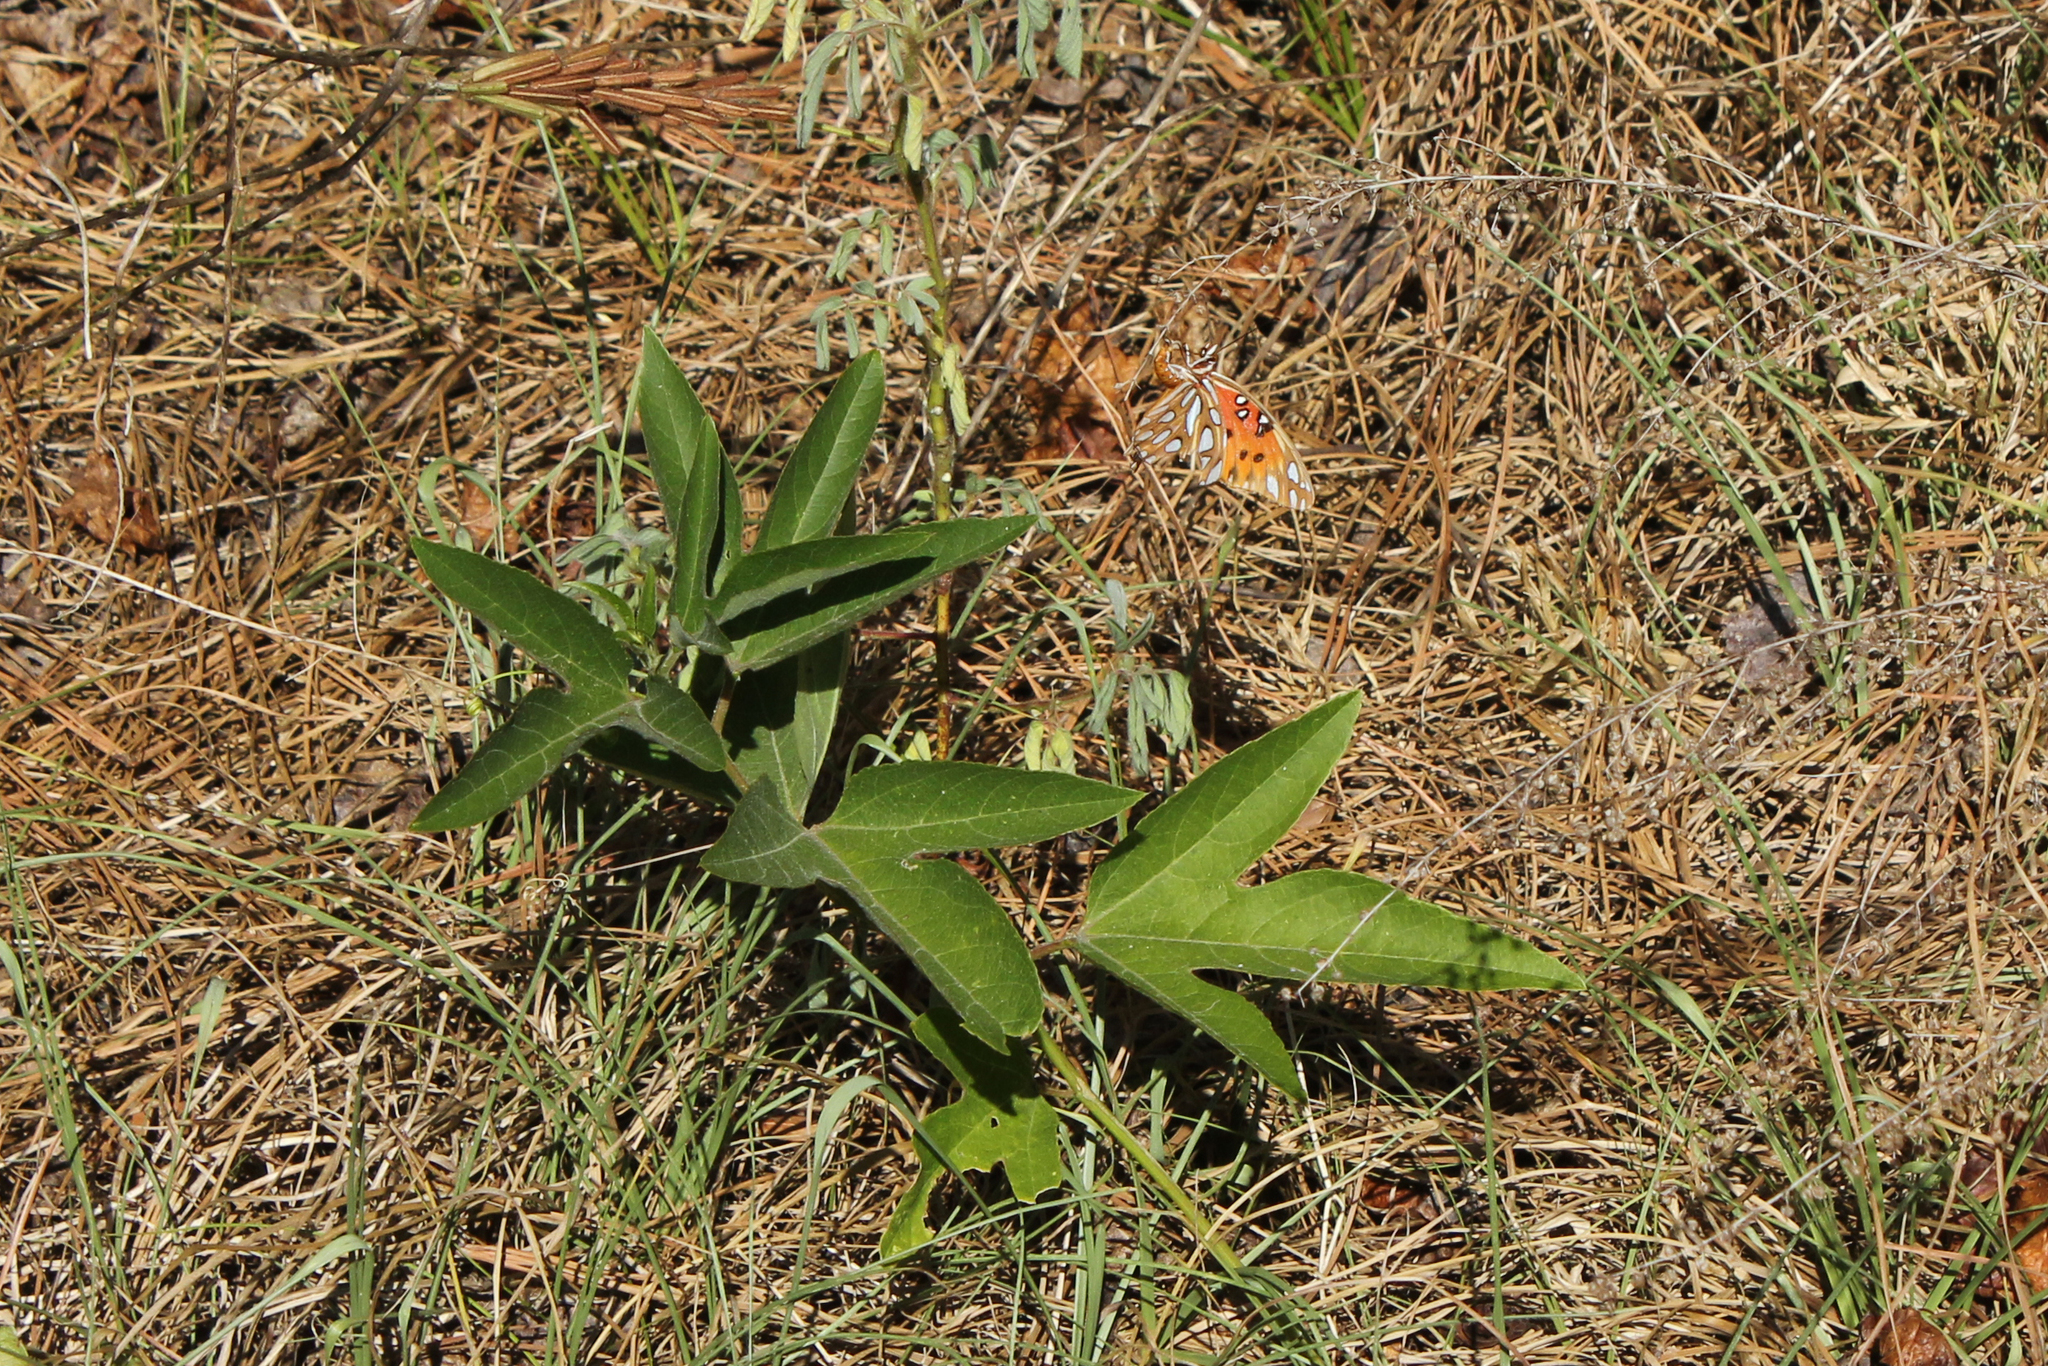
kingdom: Animalia
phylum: Arthropoda
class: Insecta
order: Lepidoptera
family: Nymphalidae
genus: Dione
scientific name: Dione vanillae
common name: Gulf fritillary
